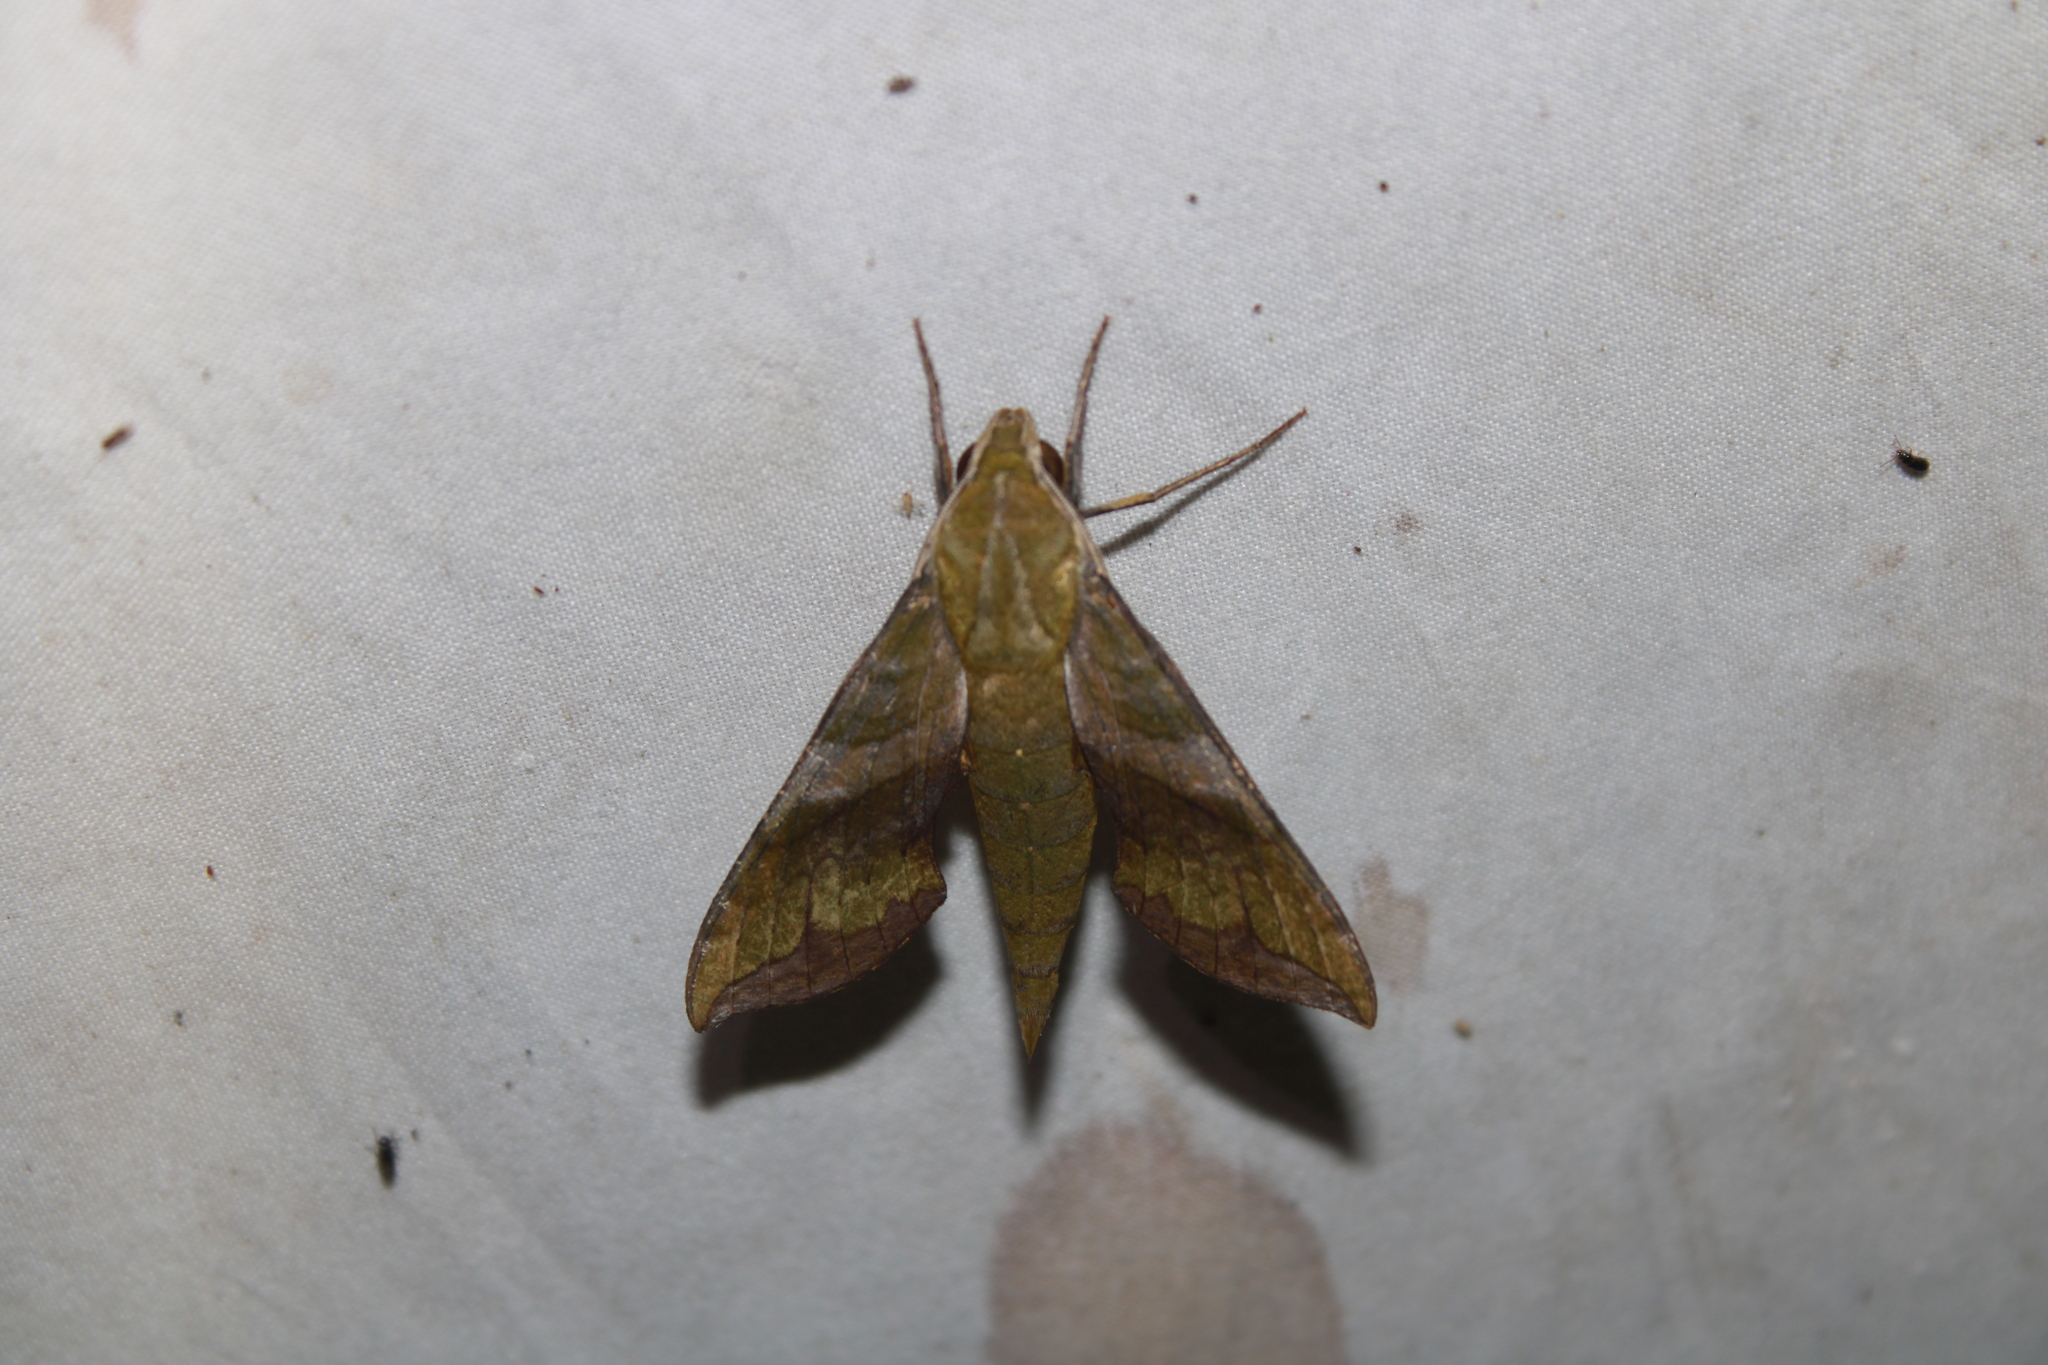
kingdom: Animalia
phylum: Arthropoda
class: Insecta
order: Lepidoptera
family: Sphingidae
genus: Xylophanes
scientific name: Xylophanes pluto
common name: Pluto sphinx
